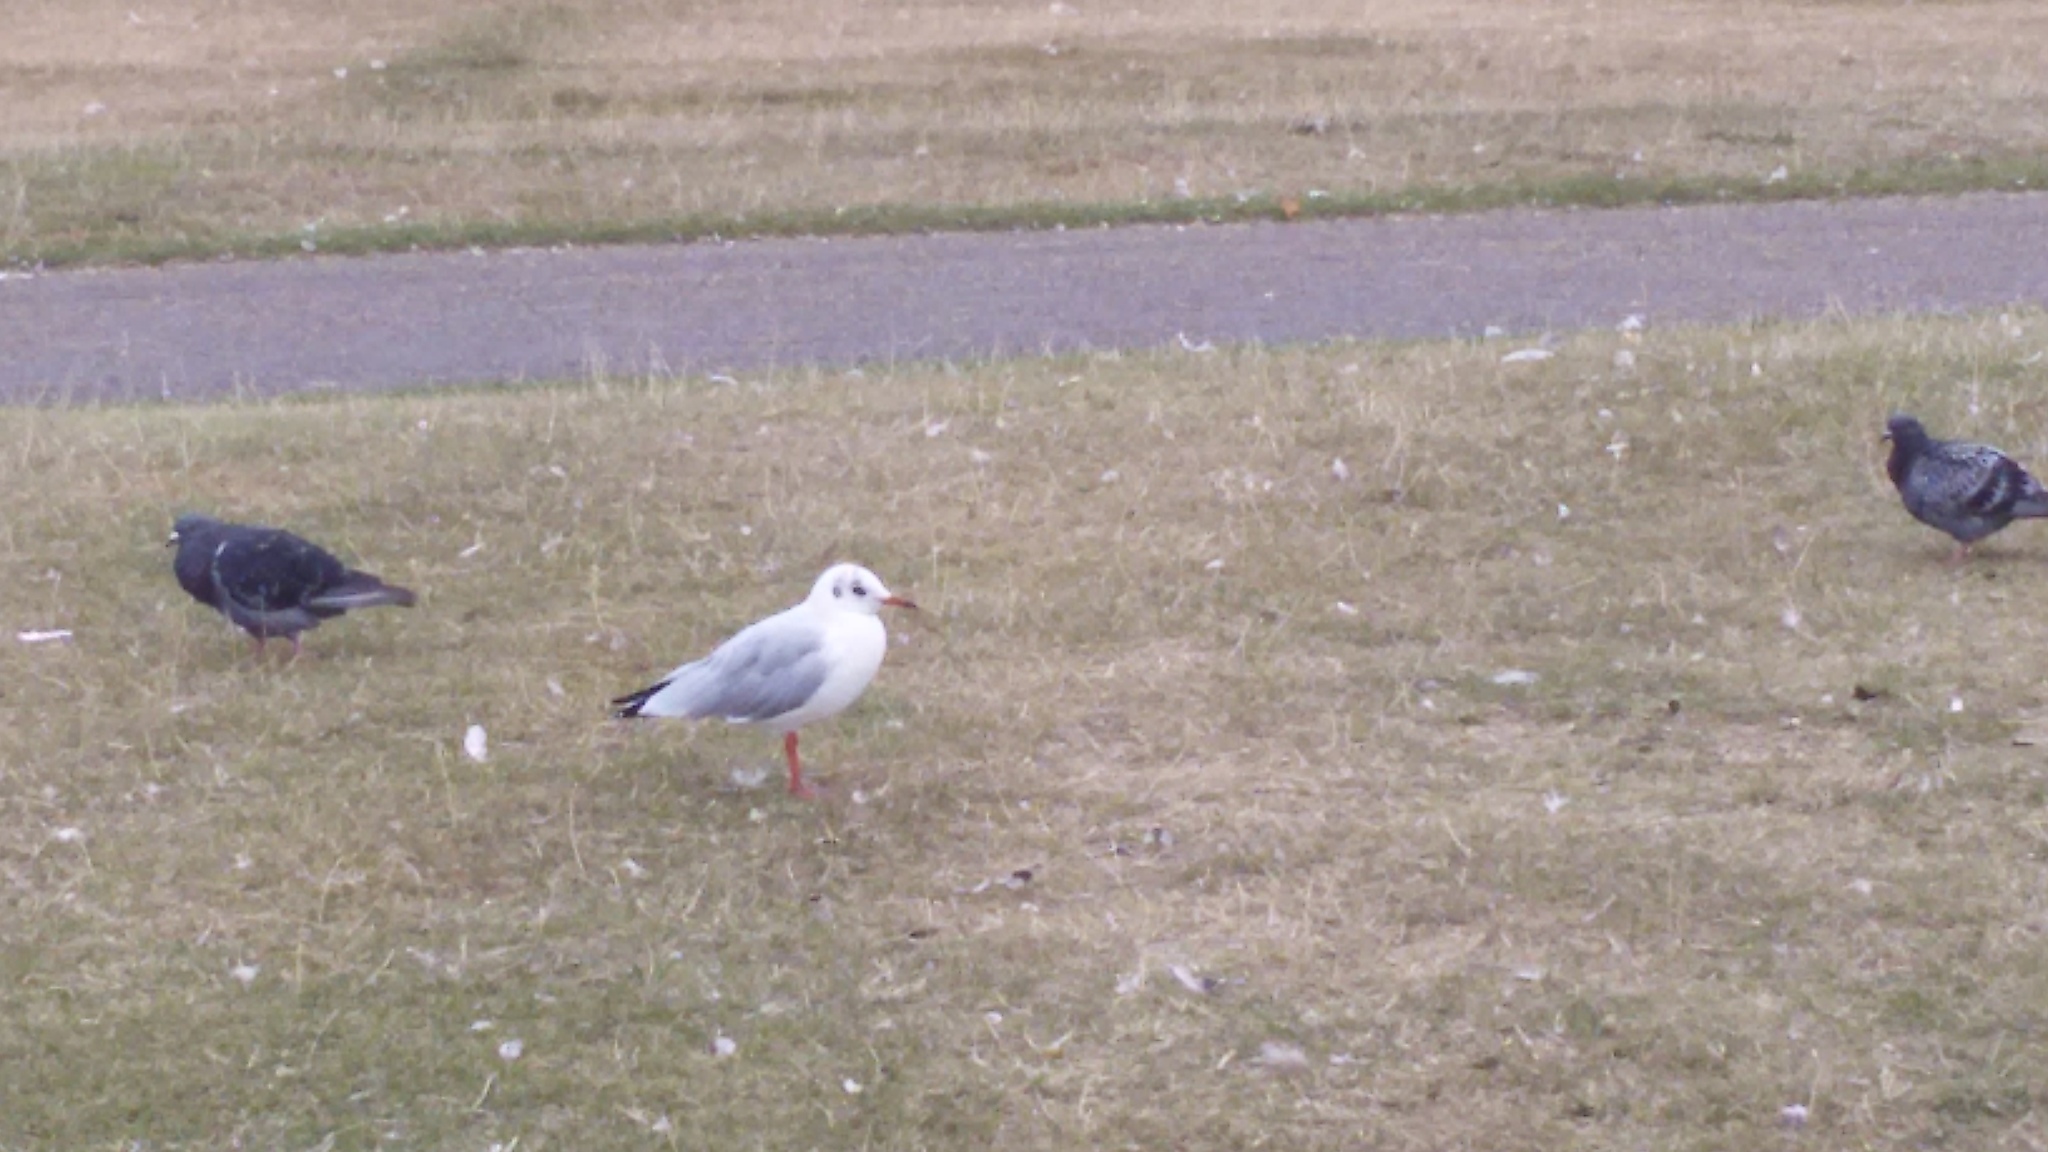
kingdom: Animalia
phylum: Chordata
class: Aves
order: Charadriiformes
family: Laridae
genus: Chroicocephalus
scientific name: Chroicocephalus ridibundus
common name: Black-headed gull
